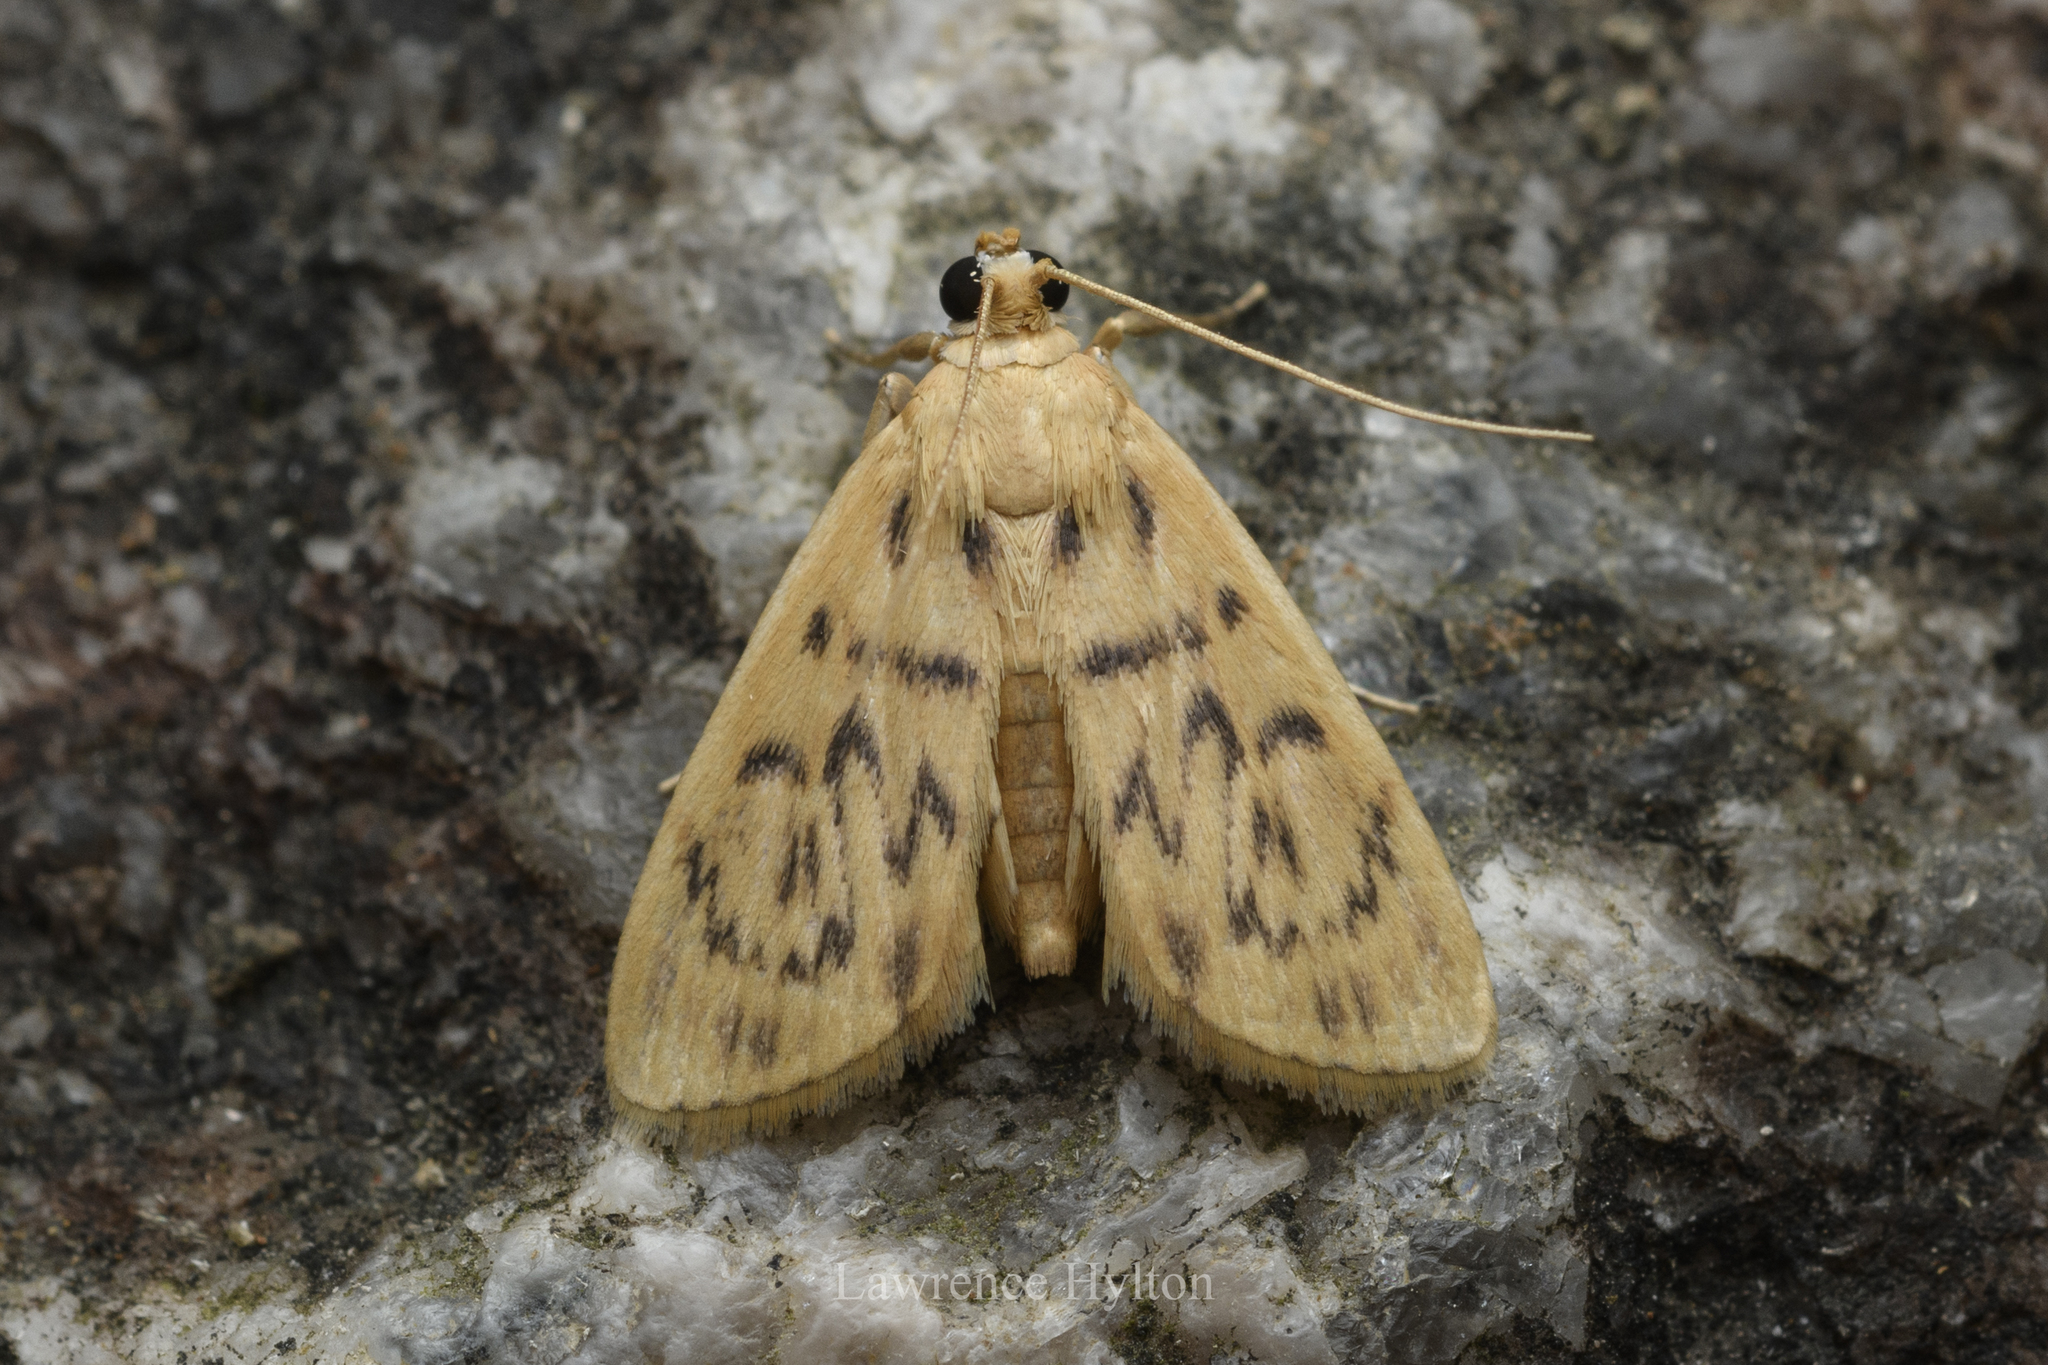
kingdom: Animalia
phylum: Arthropoda
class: Insecta
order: Lepidoptera
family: Crambidae
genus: Tabidia
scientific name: Tabidia
